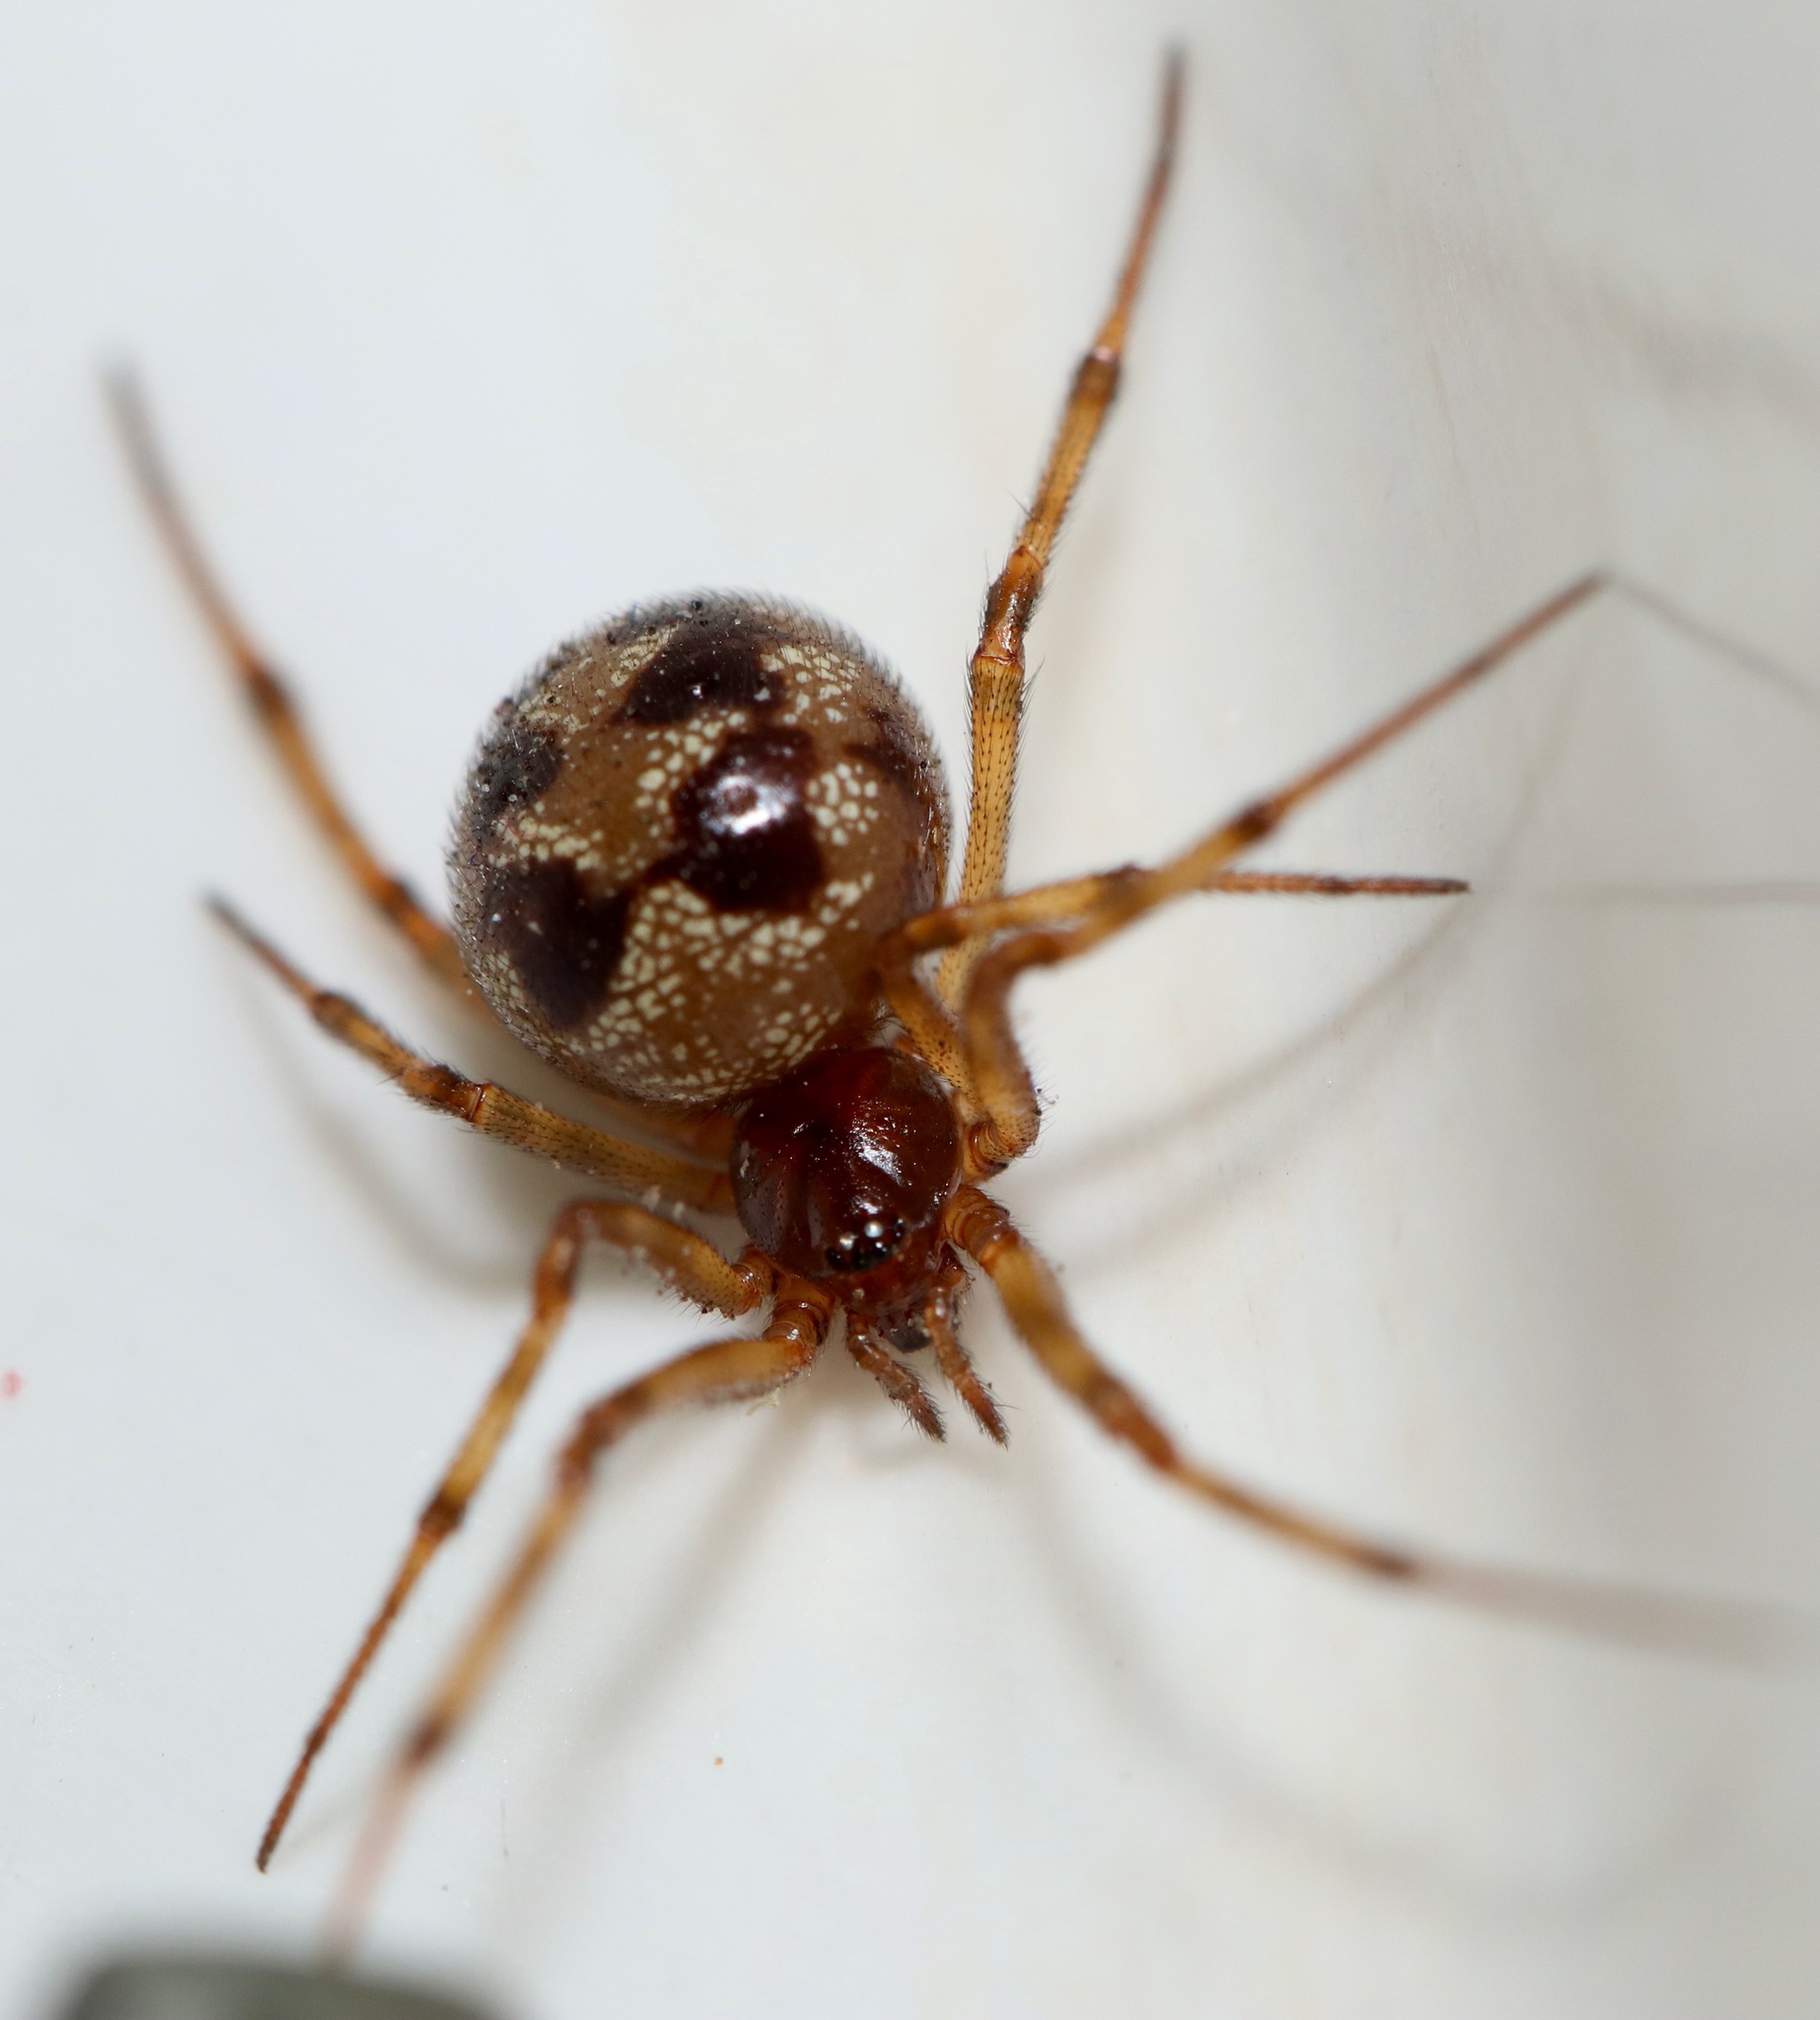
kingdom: Animalia
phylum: Arthropoda
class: Arachnida
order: Araneae
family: Theridiidae
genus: Steatoda
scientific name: Steatoda triangulosa
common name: Triangulate bud spider
